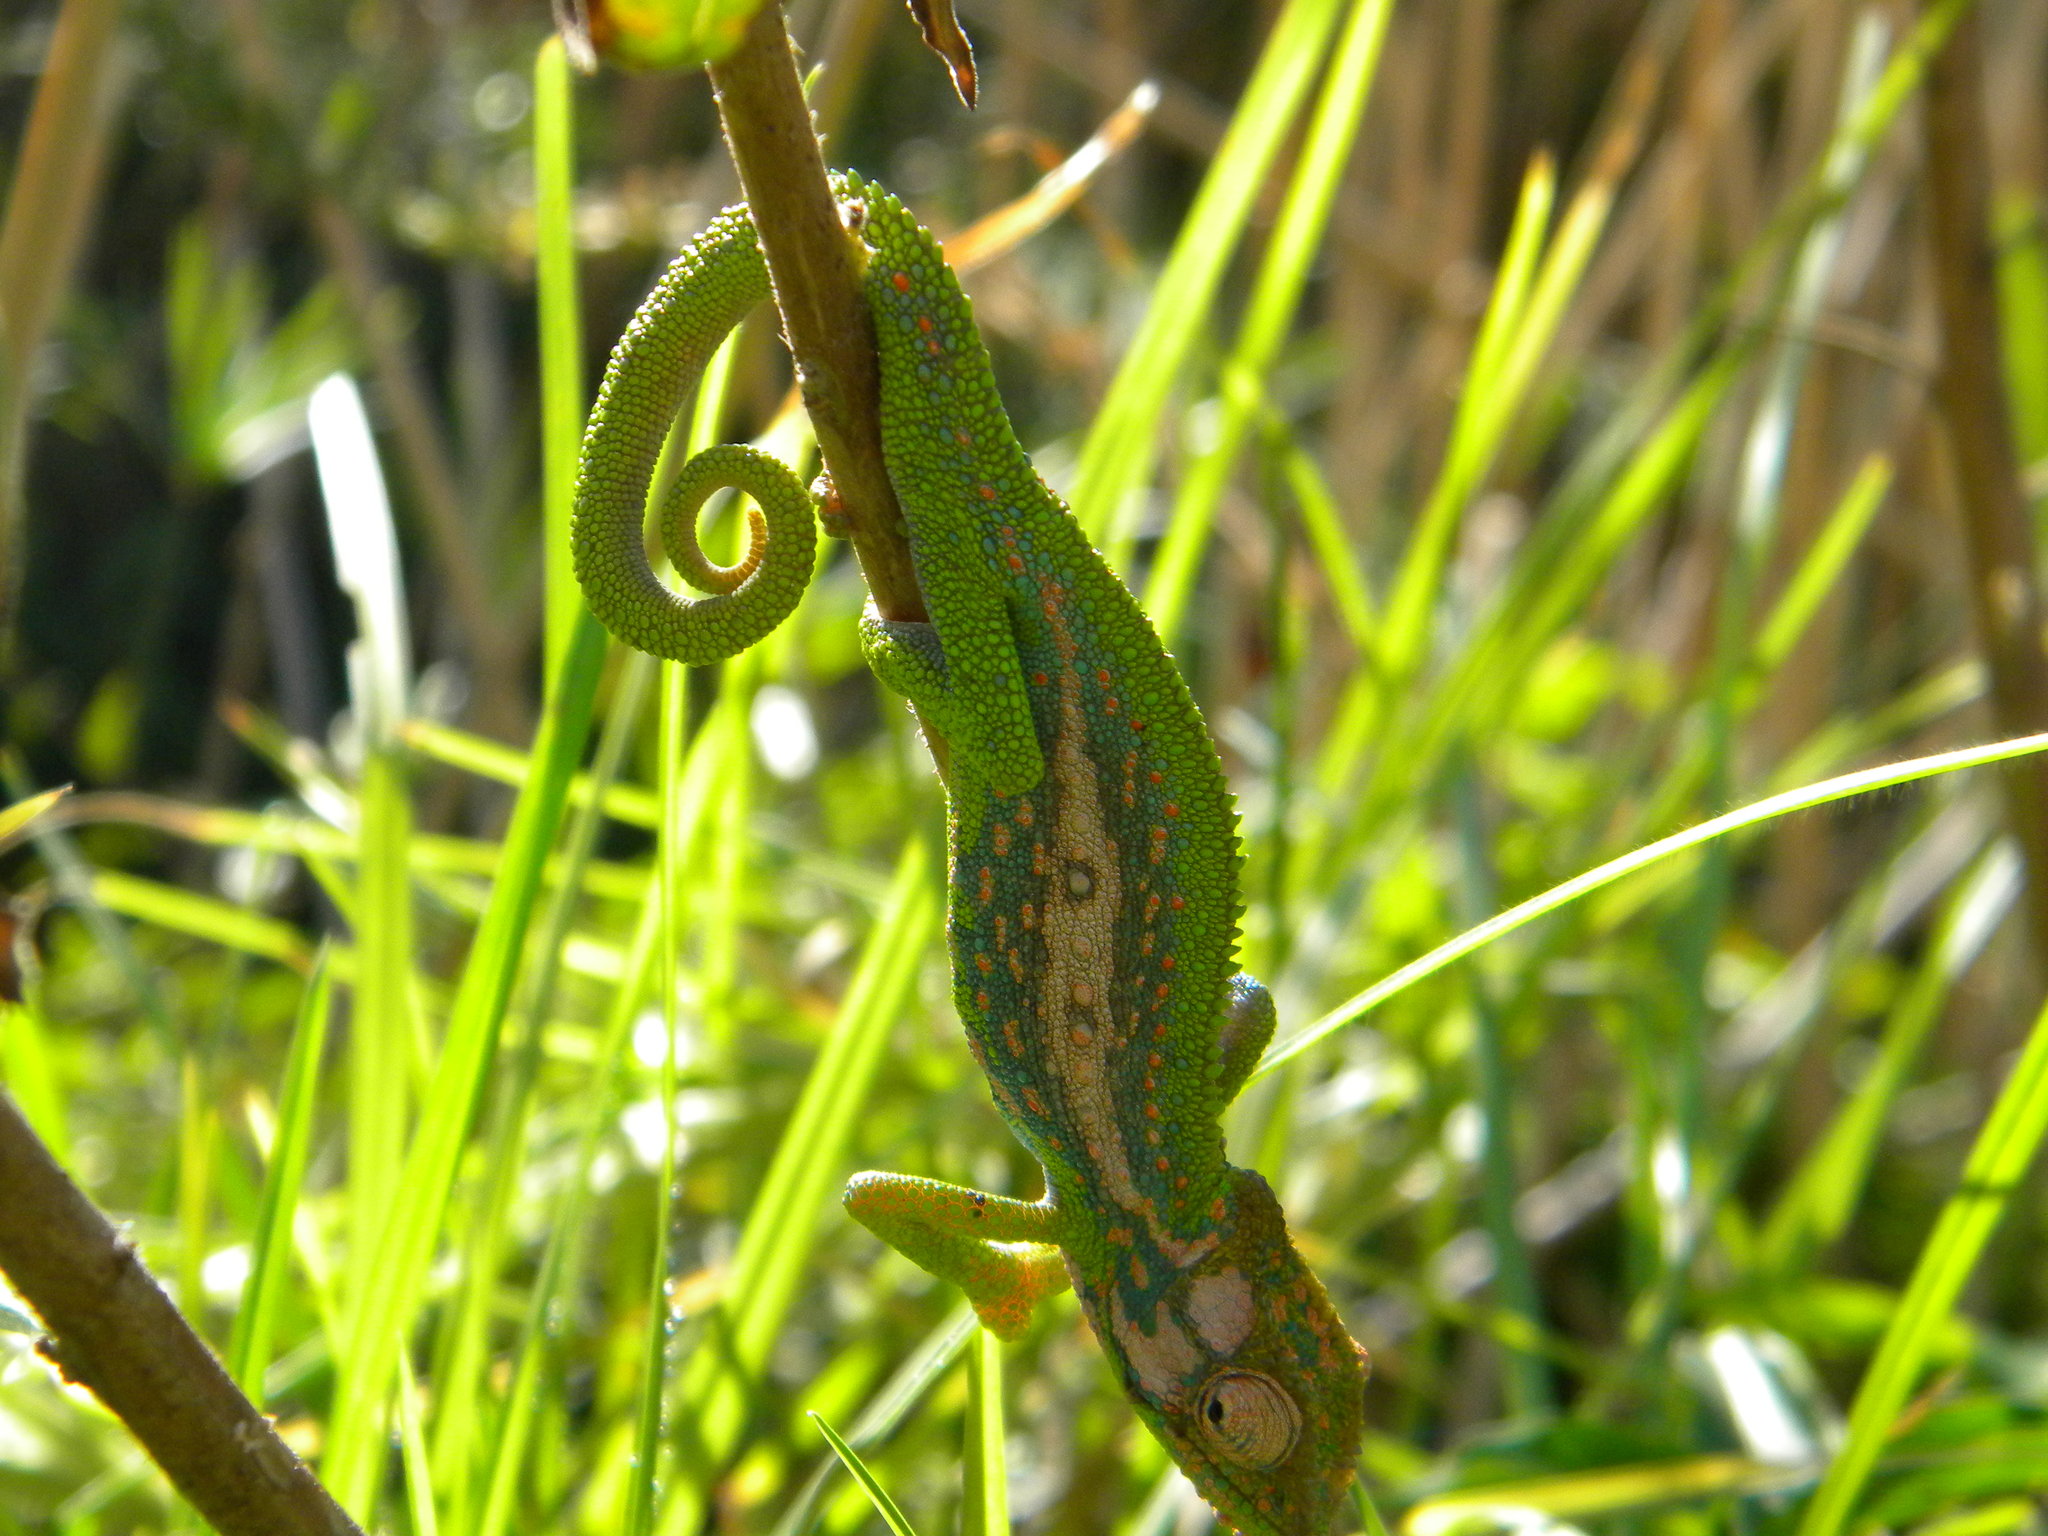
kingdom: Animalia
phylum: Chordata
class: Squamata
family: Chamaeleonidae
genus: Bradypodion
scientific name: Bradypodion pumilum
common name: Cape dwarf chameleon
